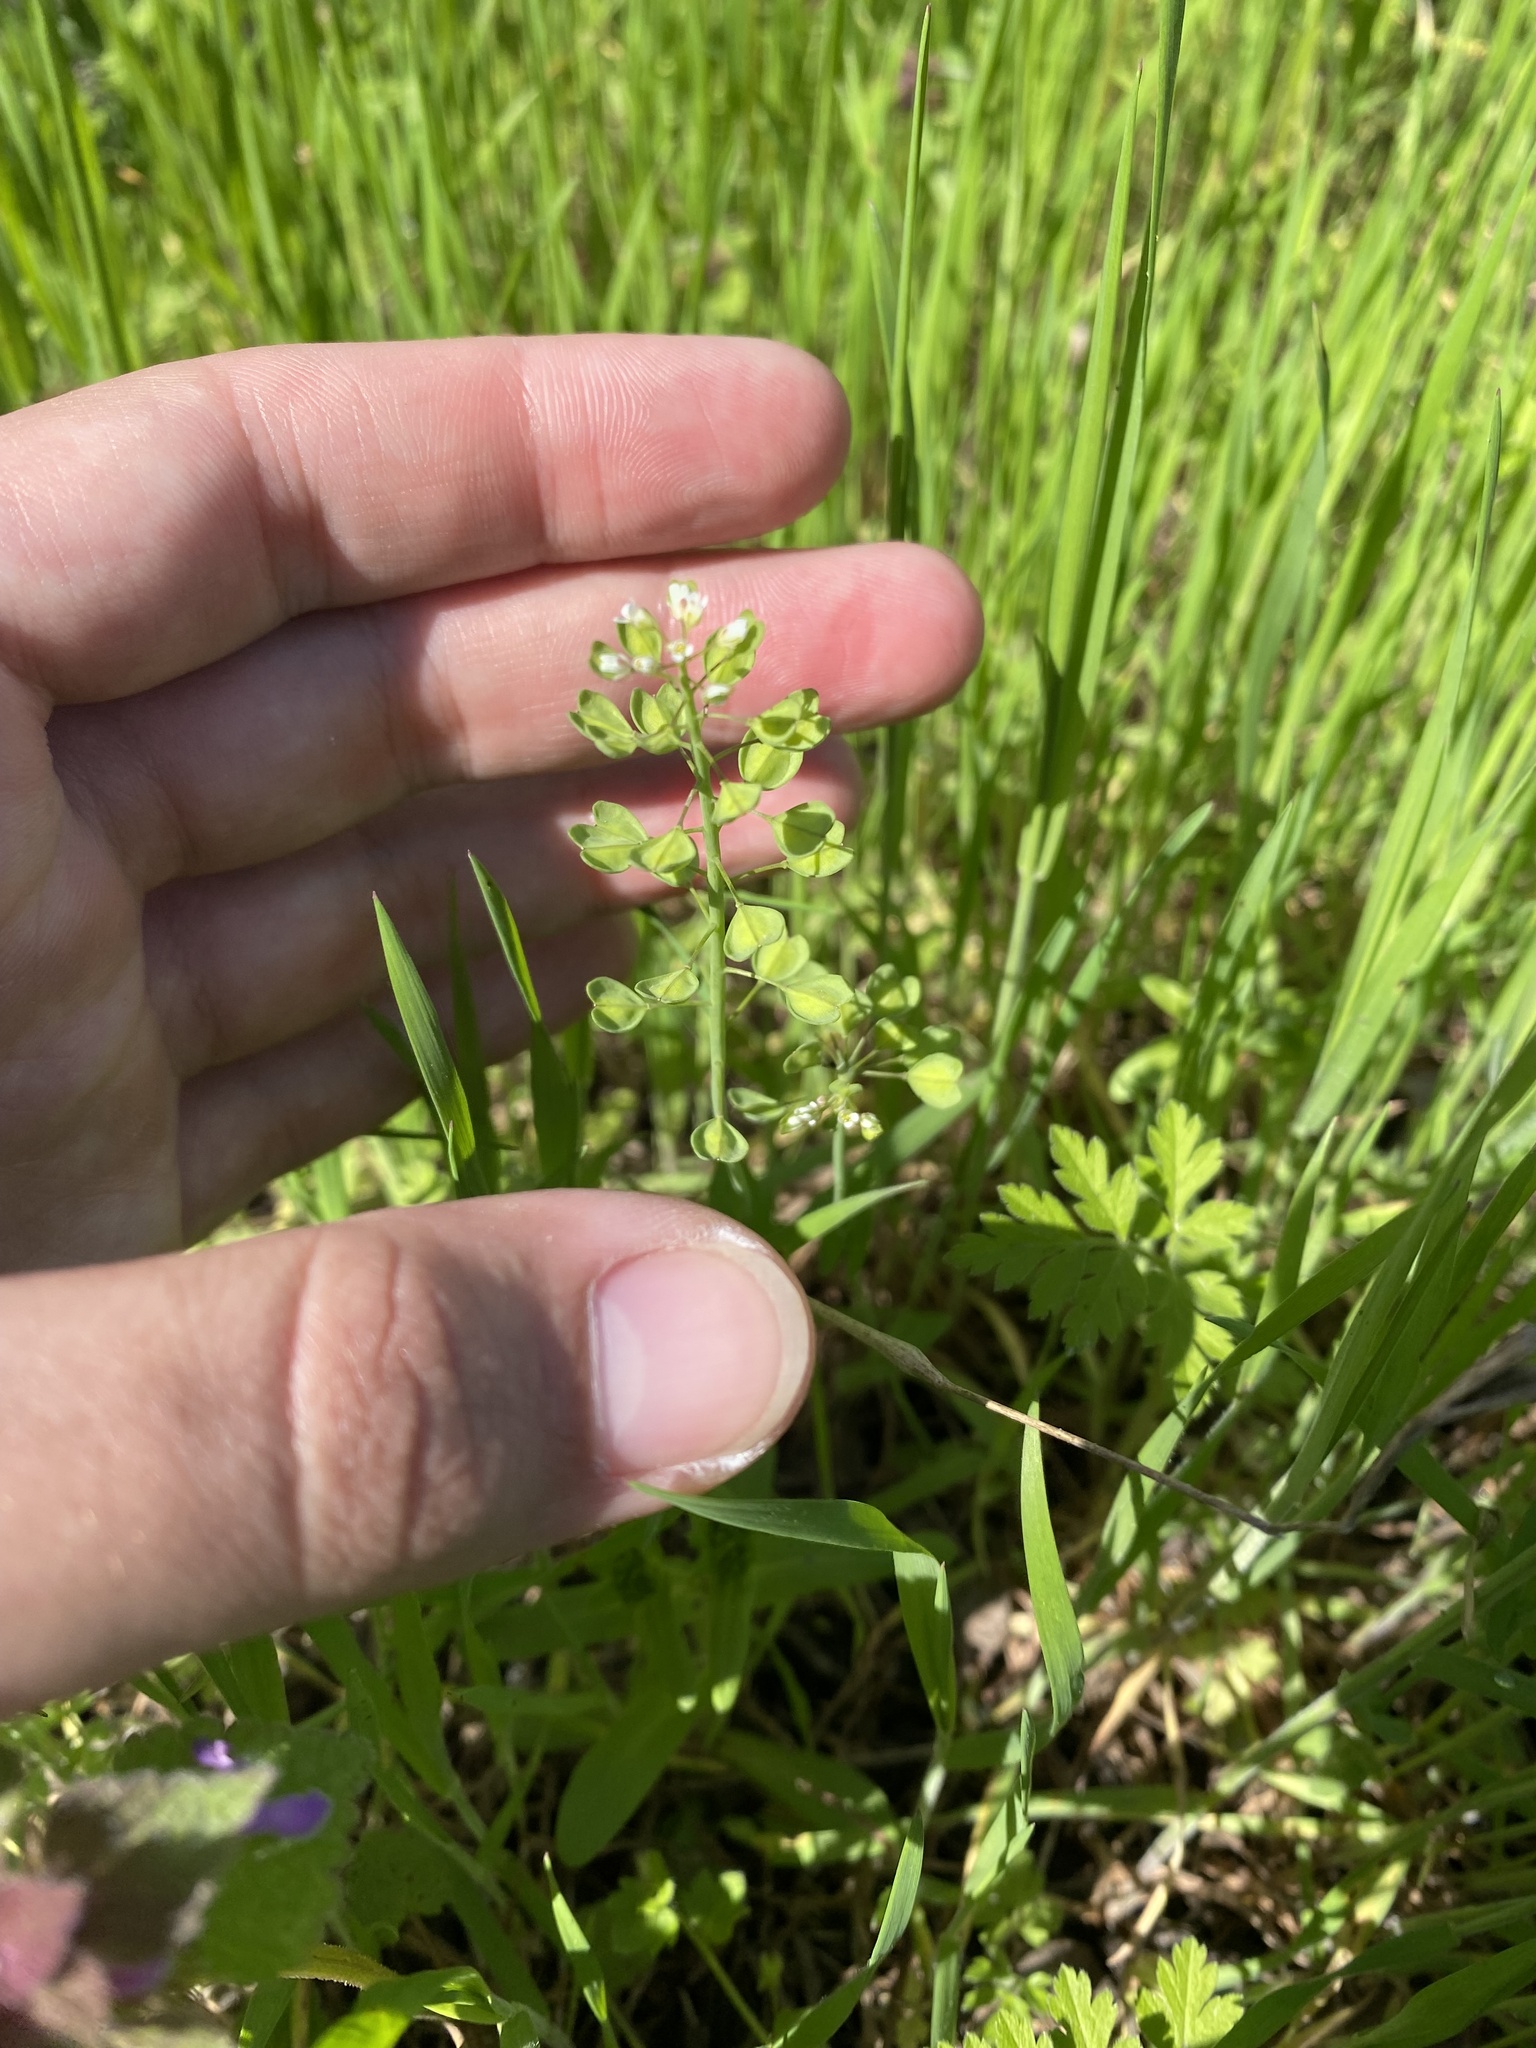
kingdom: Plantae
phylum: Tracheophyta
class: Magnoliopsida
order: Brassicales
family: Brassicaceae
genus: Noccaea
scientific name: Noccaea perfoliata
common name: Perfoliate pennycress
